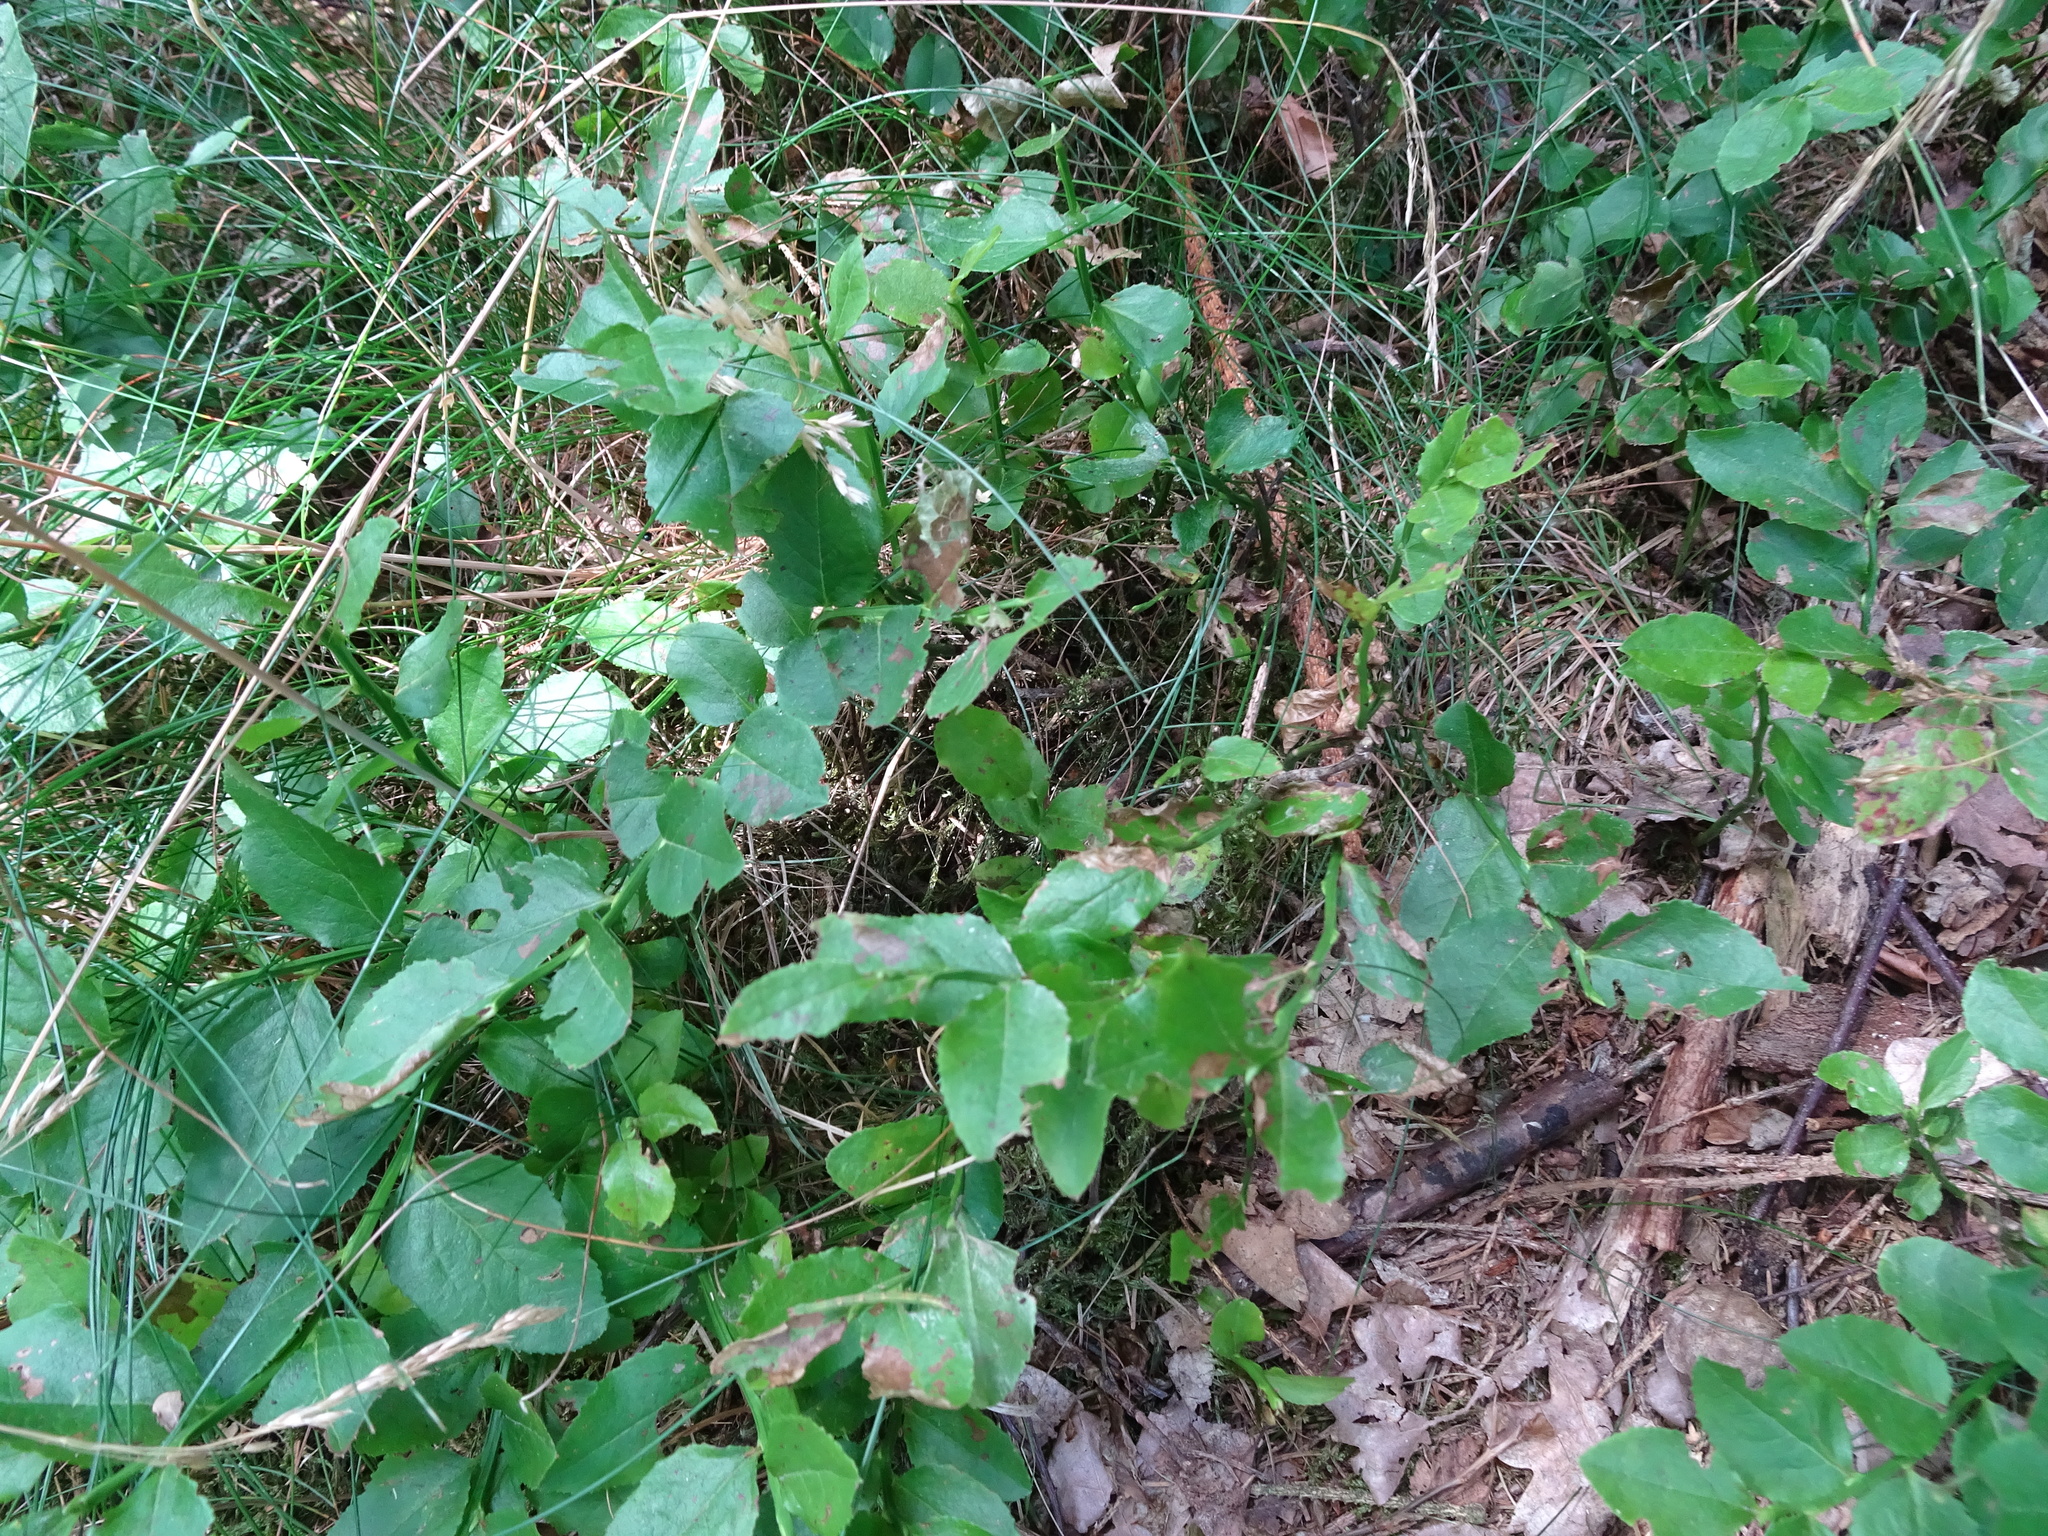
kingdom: Plantae
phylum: Tracheophyta
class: Magnoliopsida
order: Ericales
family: Ericaceae
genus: Vaccinium
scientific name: Vaccinium myrtillus
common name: Bilberry
